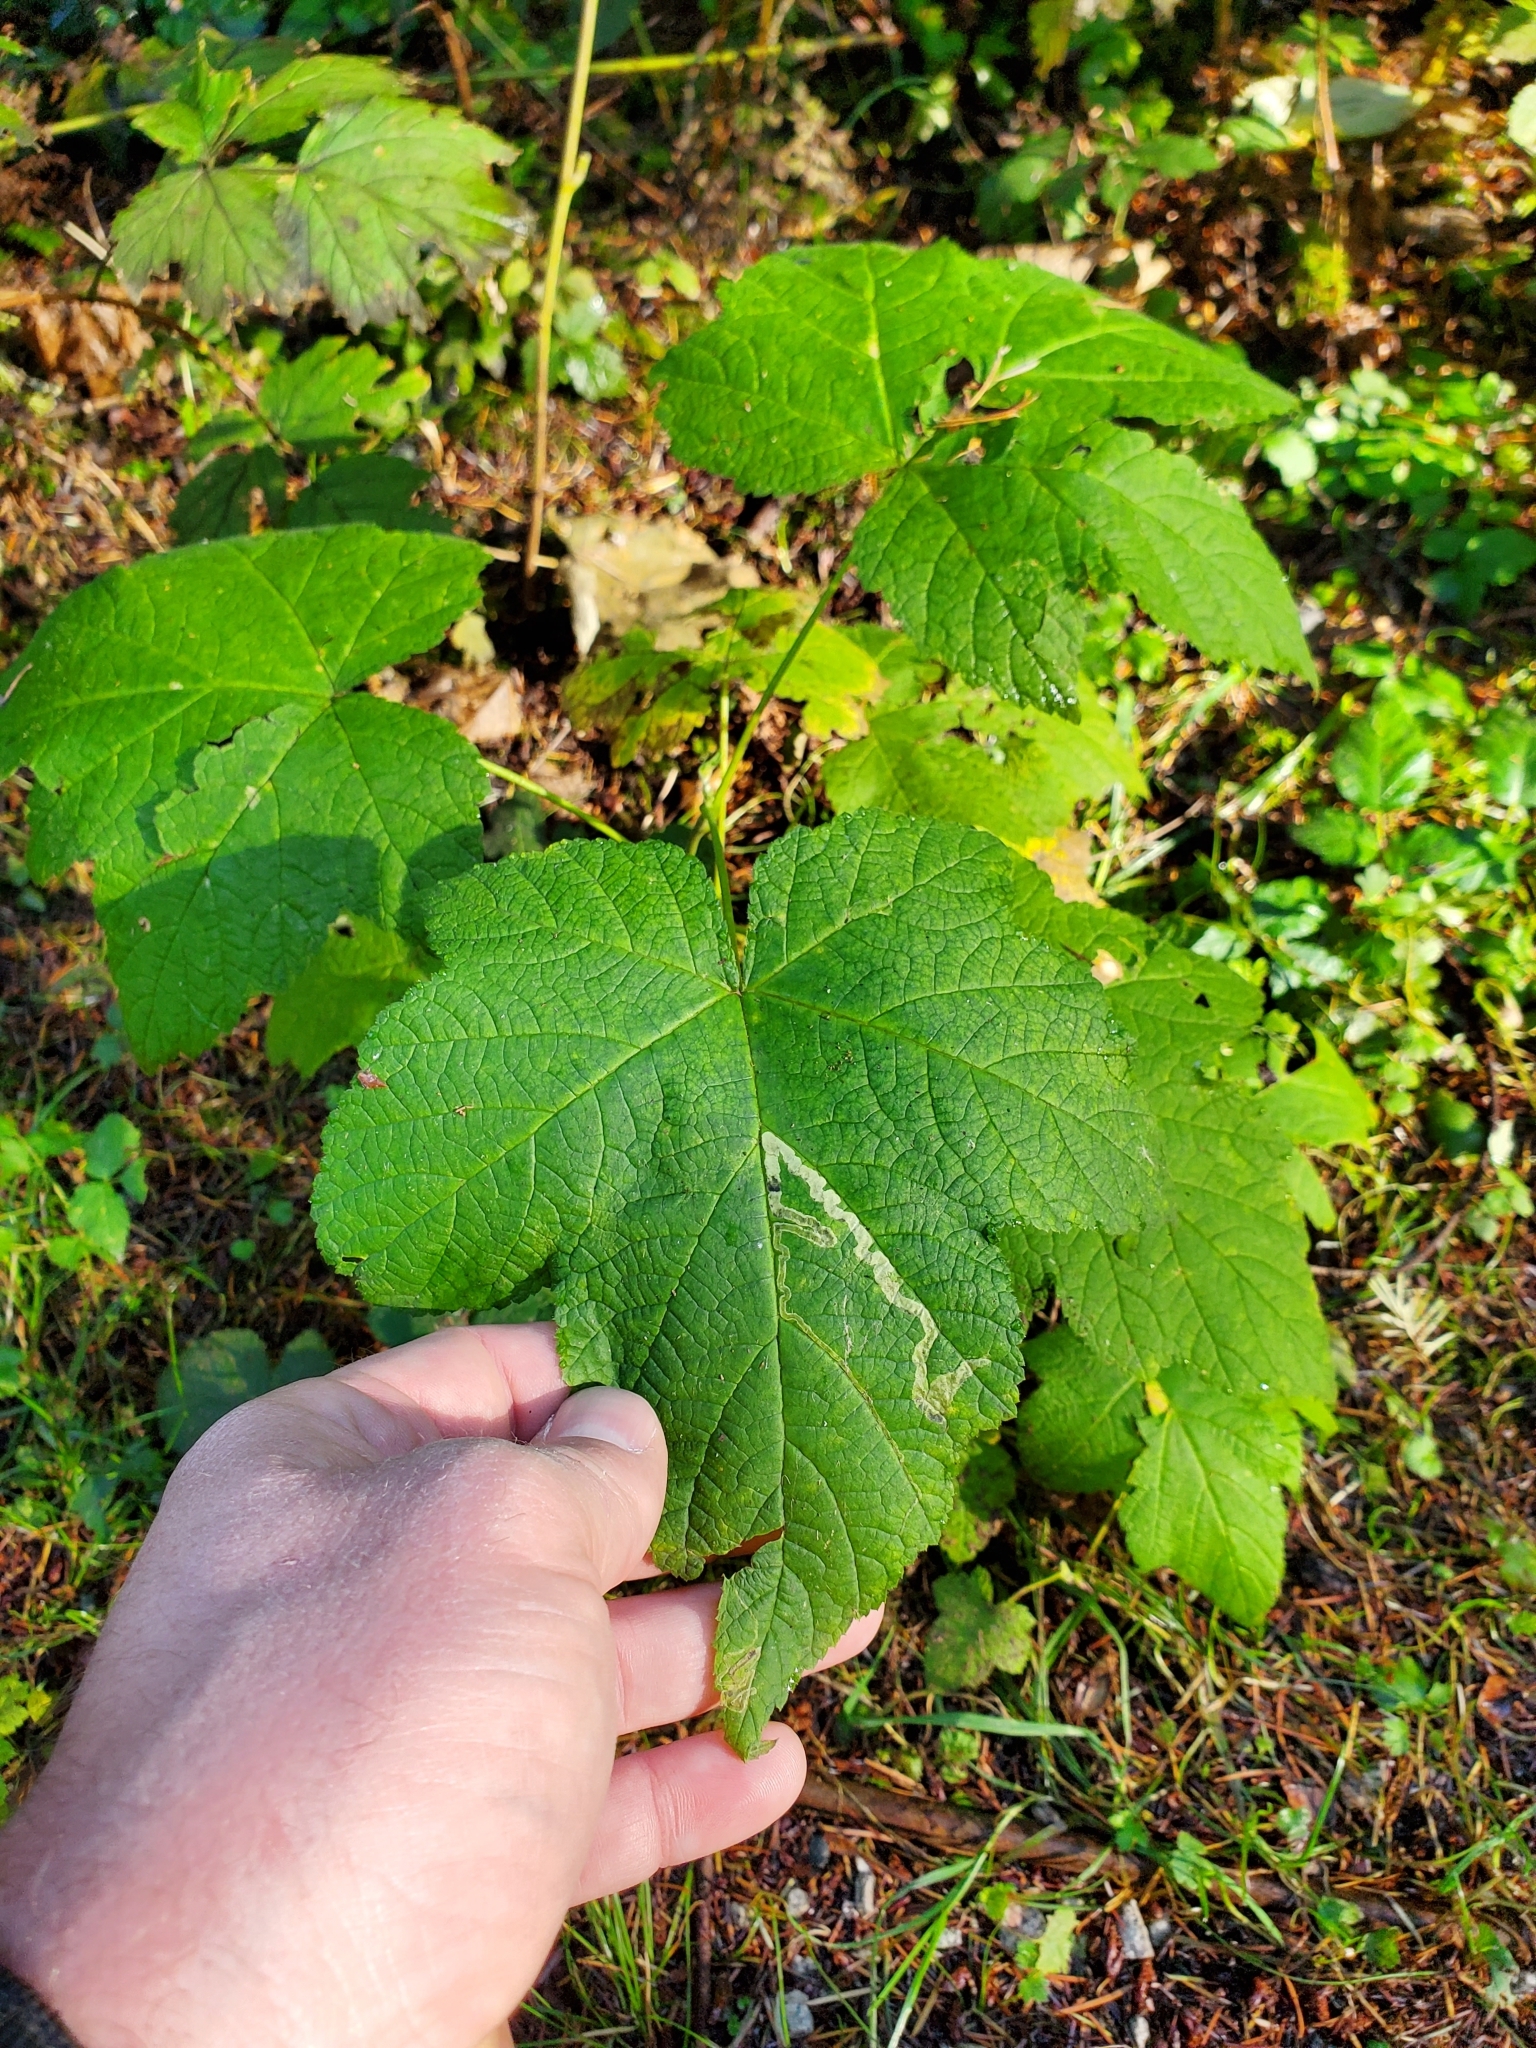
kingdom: Plantae
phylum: Tracheophyta
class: Magnoliopsida
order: Rosales
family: Rosaceae
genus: Rubus
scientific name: Rubus parviflorus
